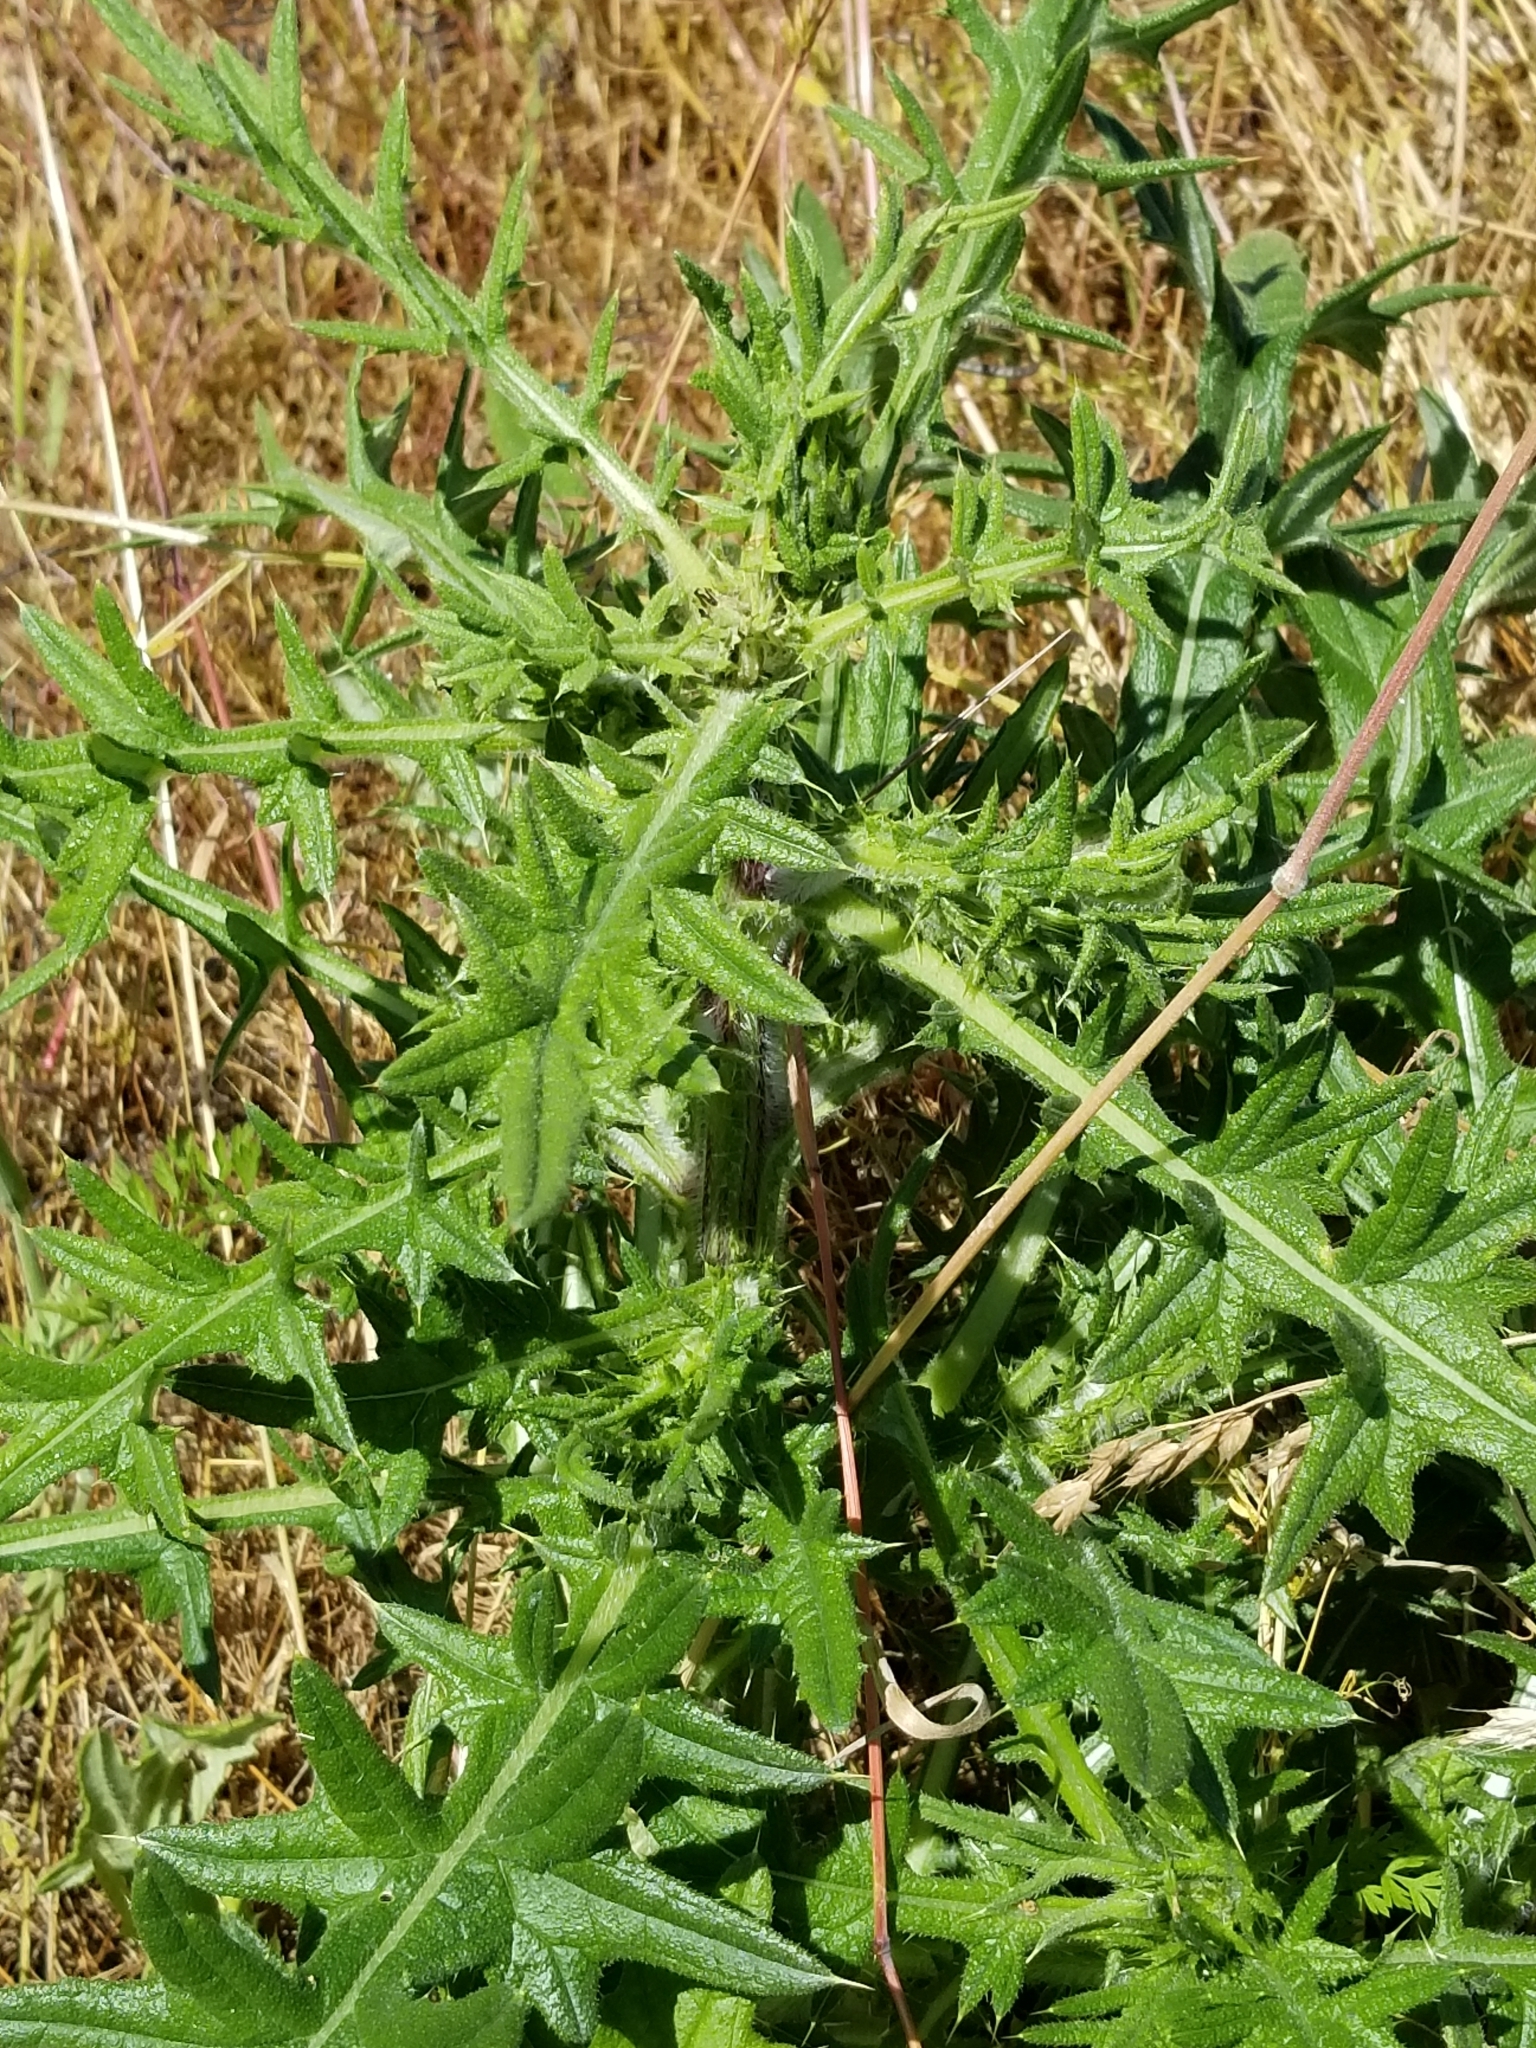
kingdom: Plantae
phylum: Tracheophyta
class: Magnoliopsida
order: Asterales
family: Asteraceae
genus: Cirsium
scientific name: Cirsium vulgare
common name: Bull thistle
